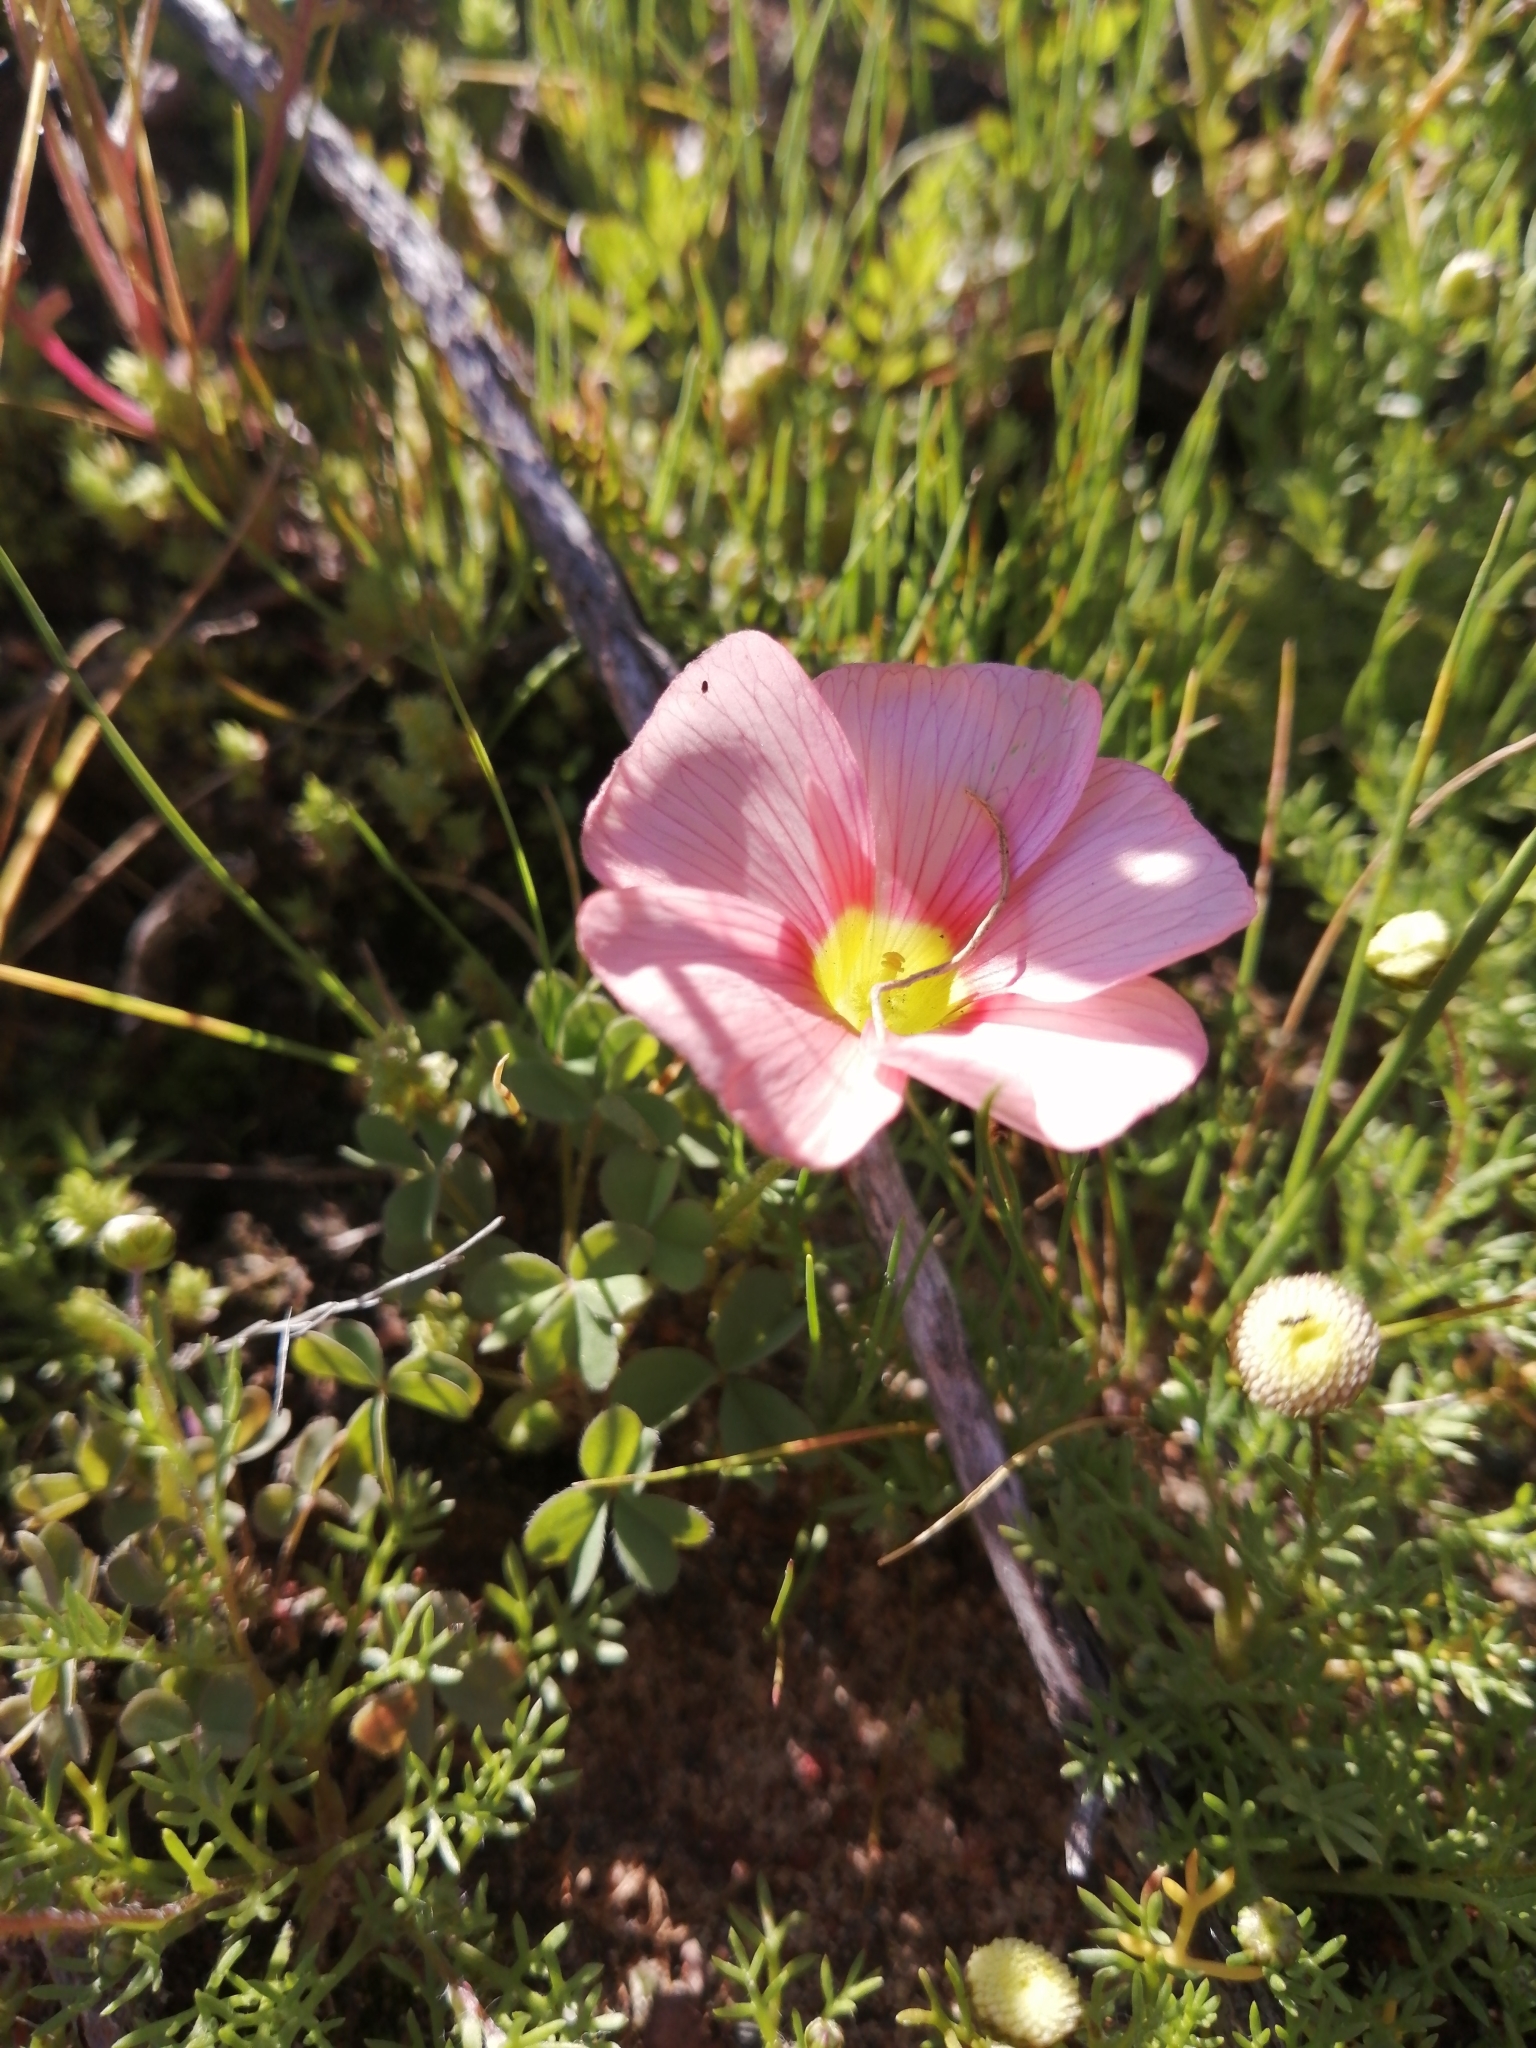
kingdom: Plantae
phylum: Tracheophyta
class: Magnoliopsida
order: Oxalidales
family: Oxalidaceae
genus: Oxalis
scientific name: Oxalis obtusa
